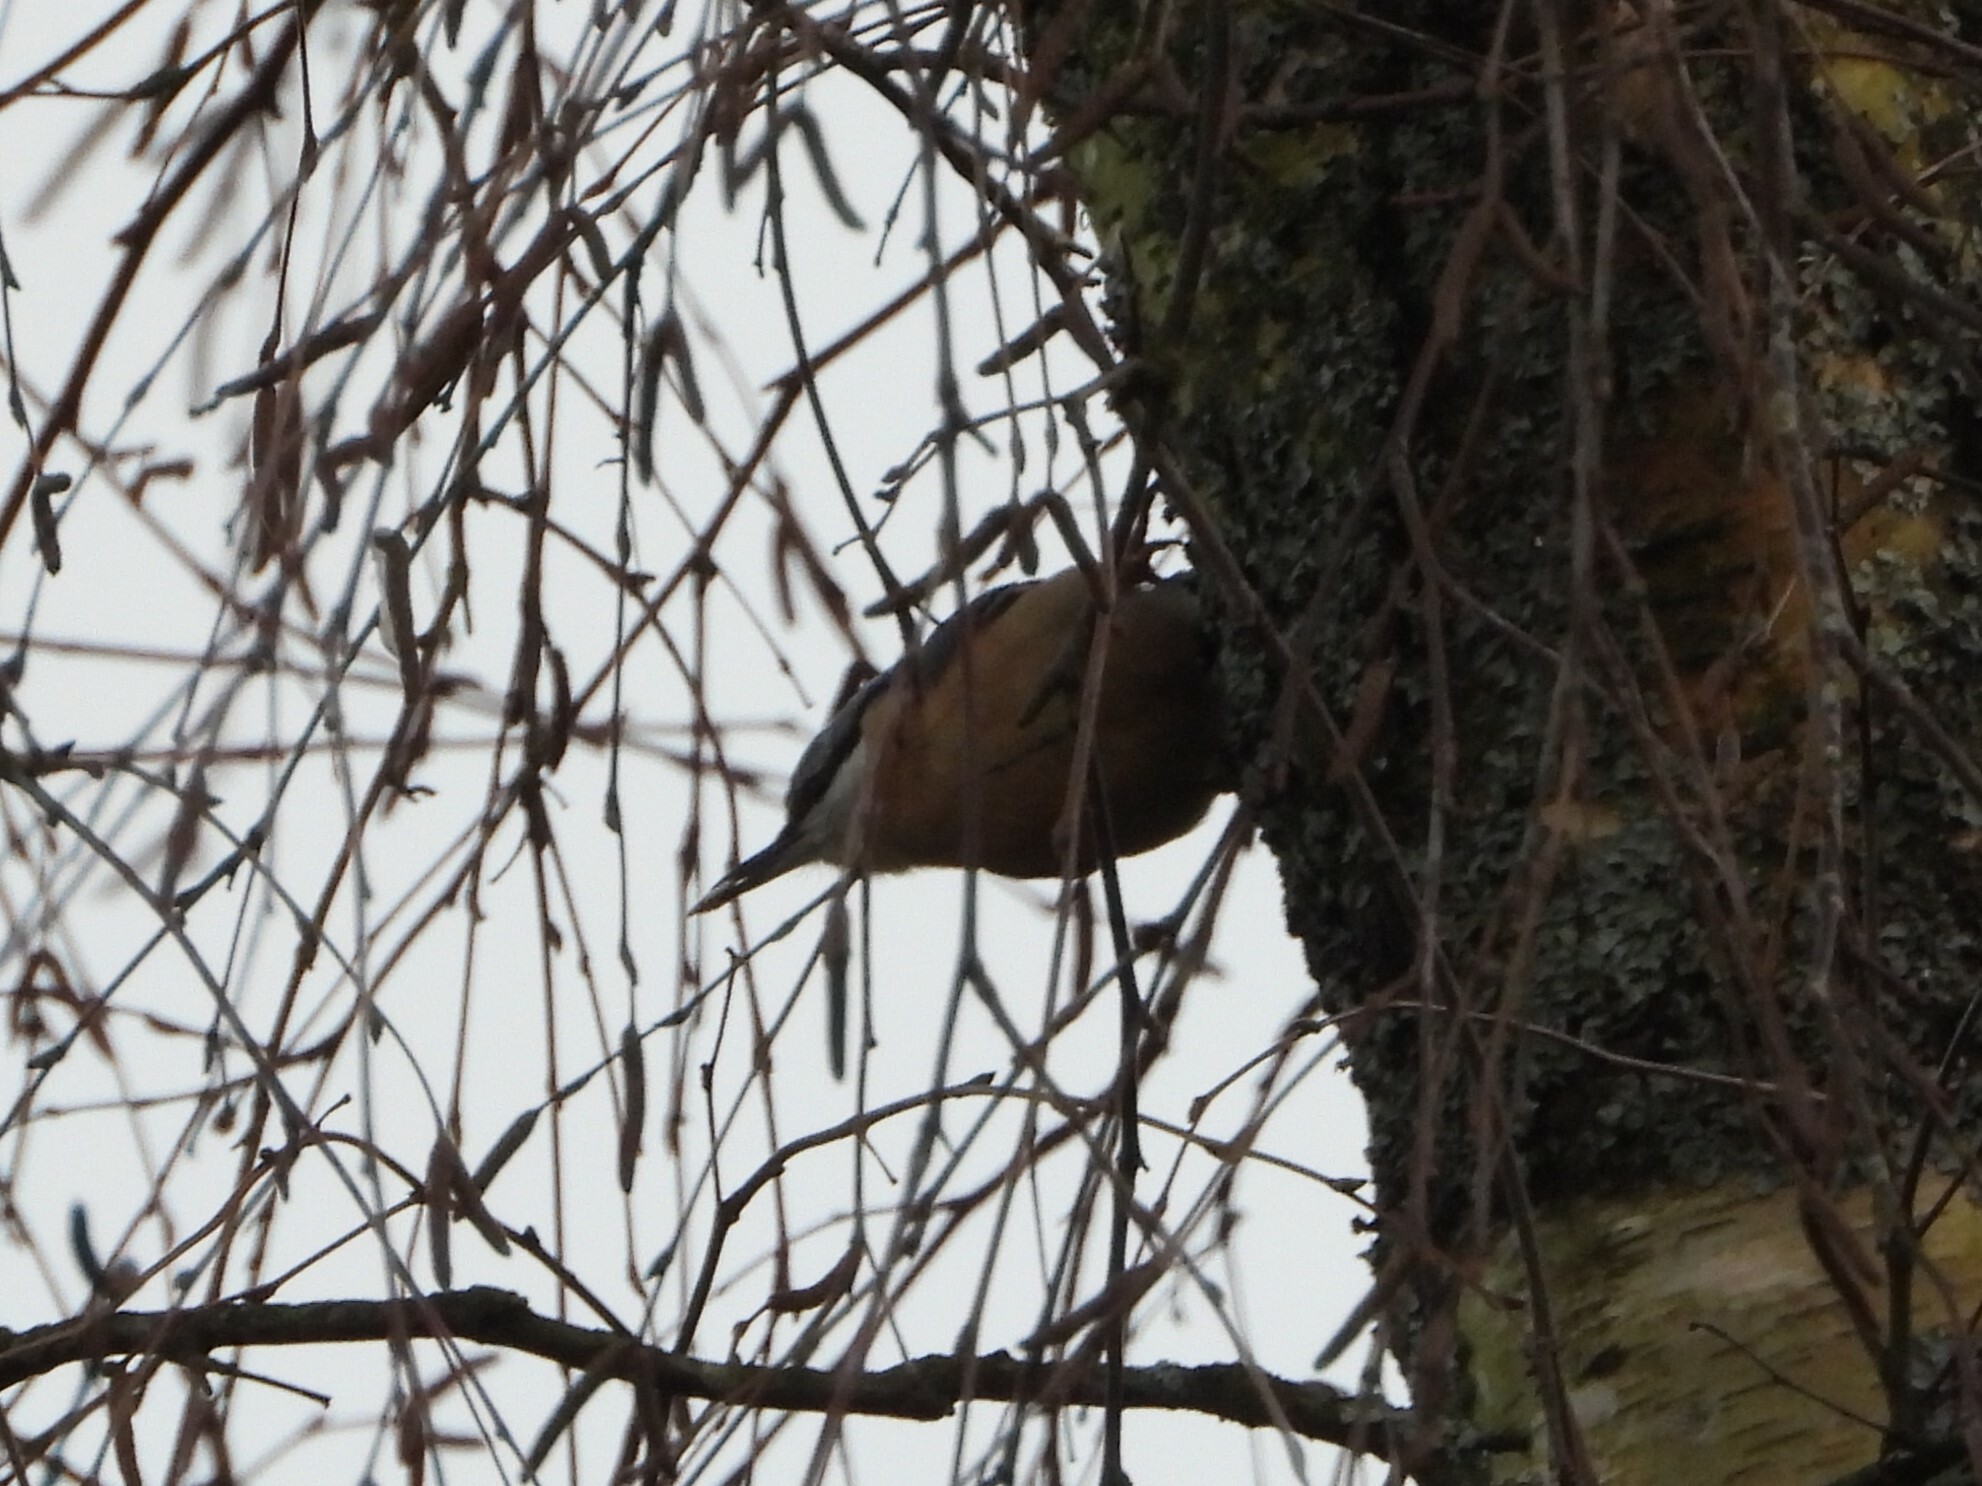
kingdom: Animalia
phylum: Chordata
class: Aves
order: Passeriformes
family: Sittidae
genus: Sitta
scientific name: Sitta europaea
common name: Eurasian nuthatch
